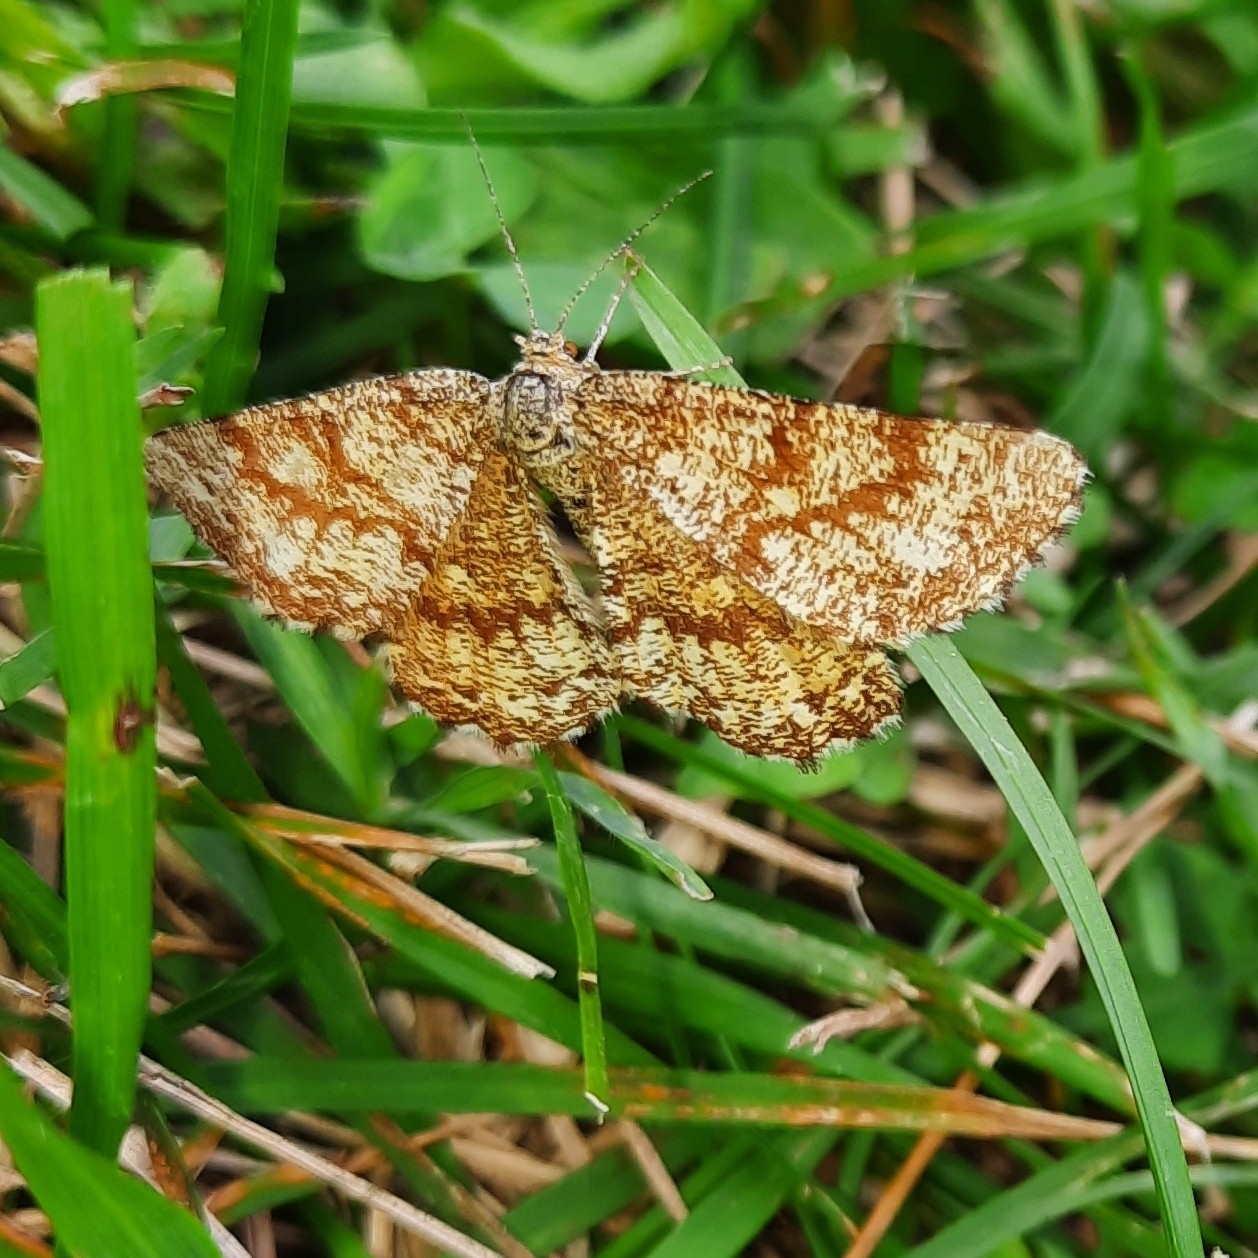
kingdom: Animalia
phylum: Arthropoda
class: Insecta
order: Lepidoptera
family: Geometridae
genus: Ematurga
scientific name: Ematurga atomaria
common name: Common heath
